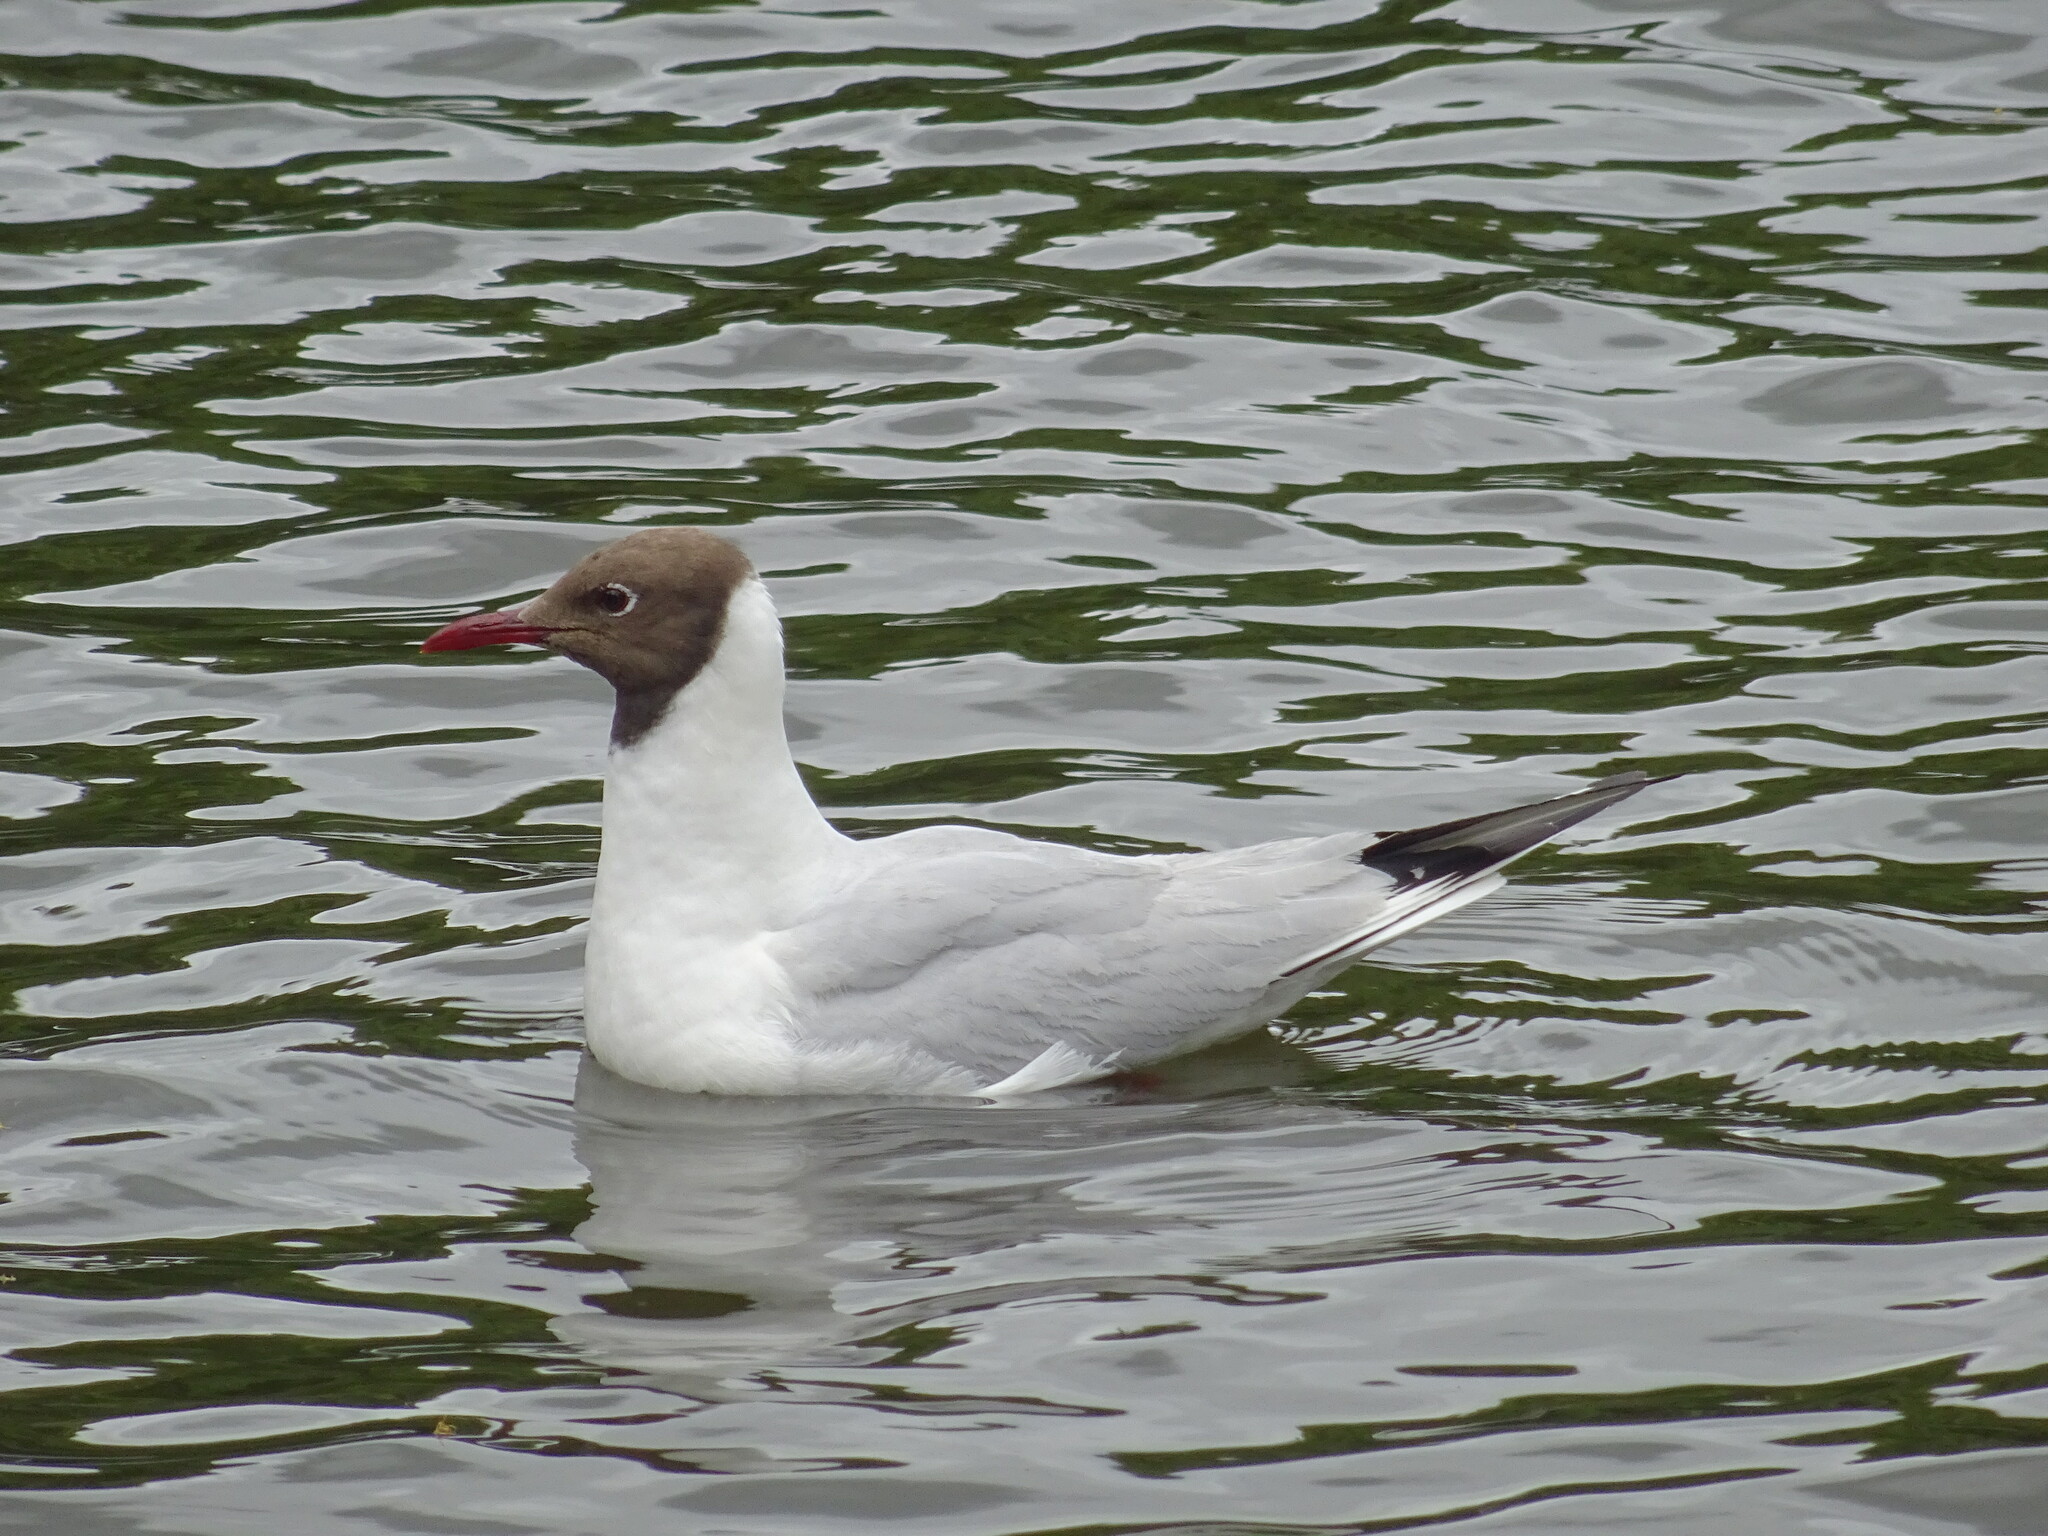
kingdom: Animalia
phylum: Chordata
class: Aves
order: Charadriiformes
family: Laridae
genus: Chroicocephalus
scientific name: Chroicocephalus ridibundus
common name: Black-headed gull
